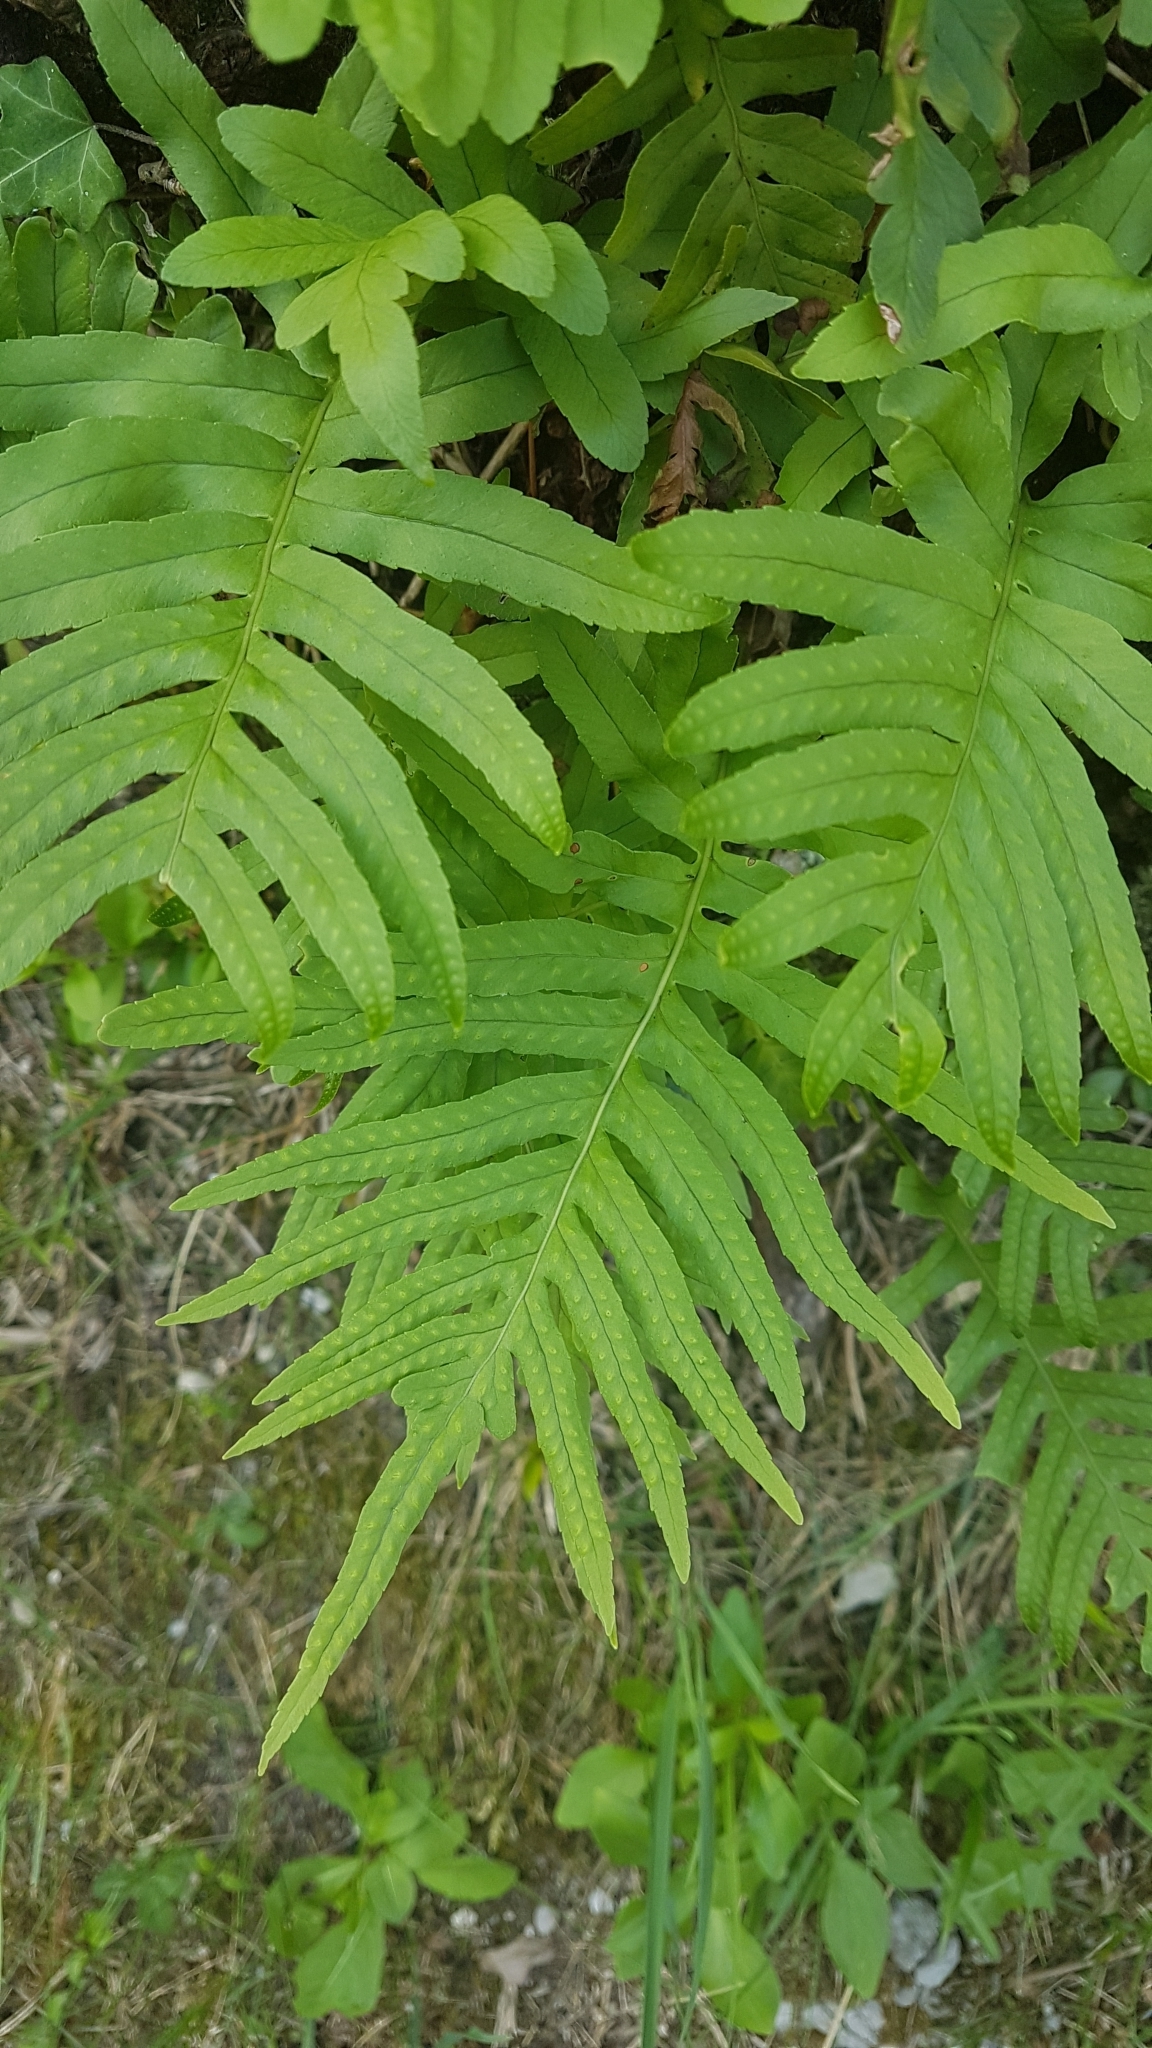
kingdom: Plantae
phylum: Tracheophyta
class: Polypodiopsida
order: Polypodiales
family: Polypodiaceae
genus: Polypodium
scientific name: Polypodium cambricum
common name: Southern polypody
